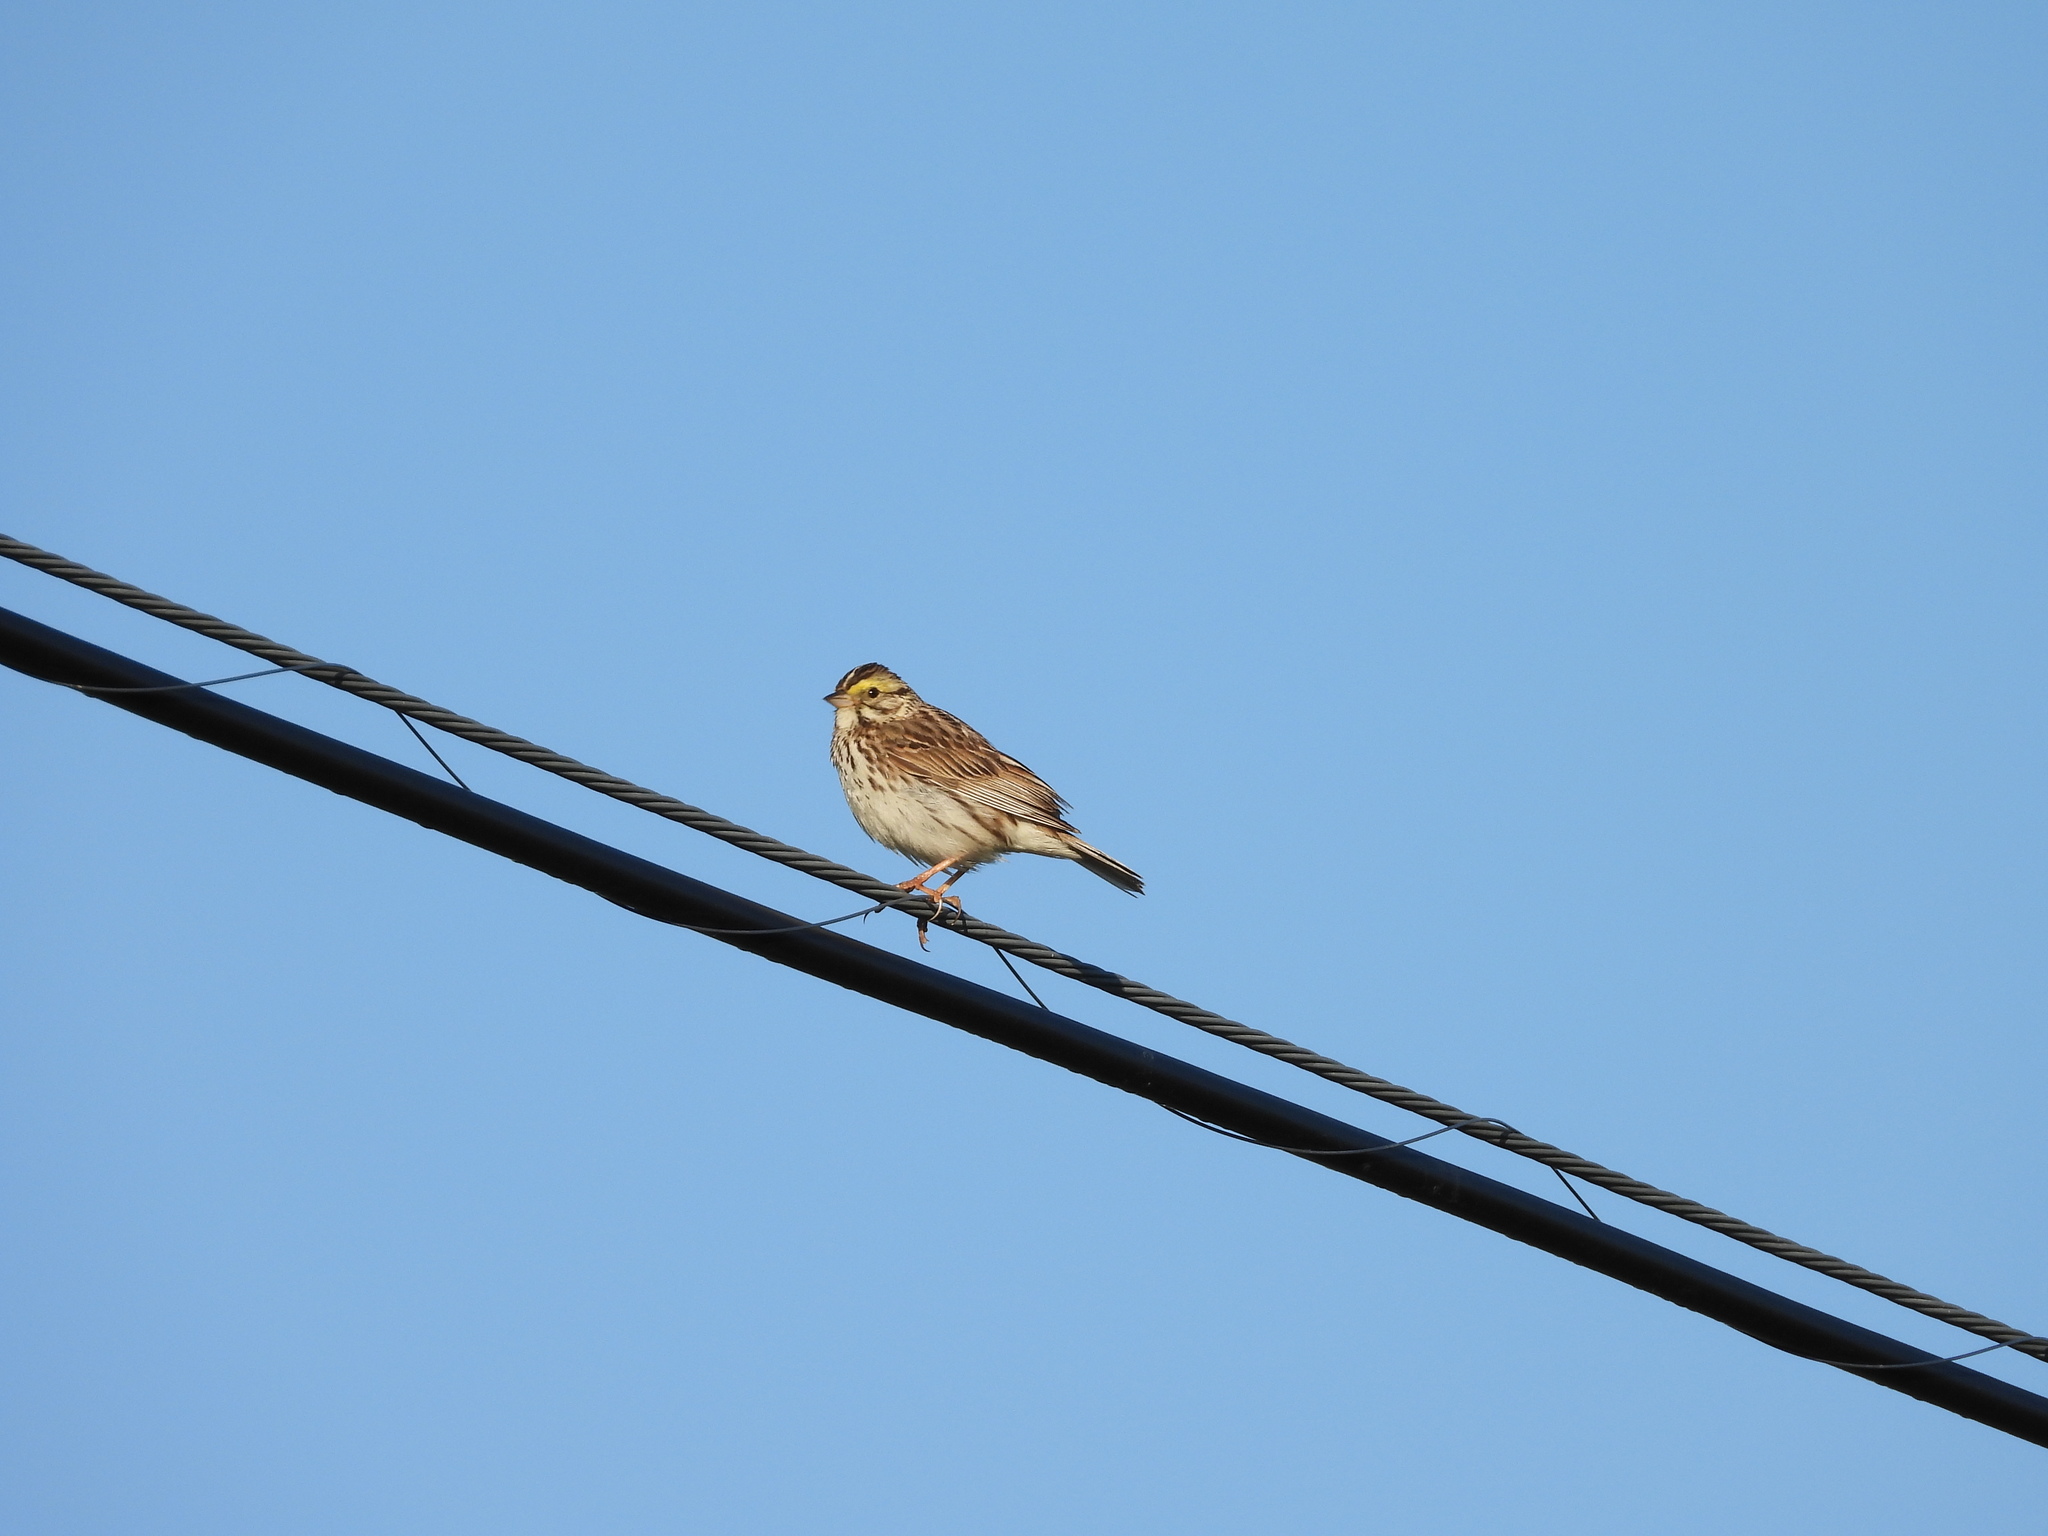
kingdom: Animalia
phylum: Chordata
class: Aves
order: Passeriformes
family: Passerellidae
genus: Passerculus
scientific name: Passerculus sandwichensis
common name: Savannah sparrow
